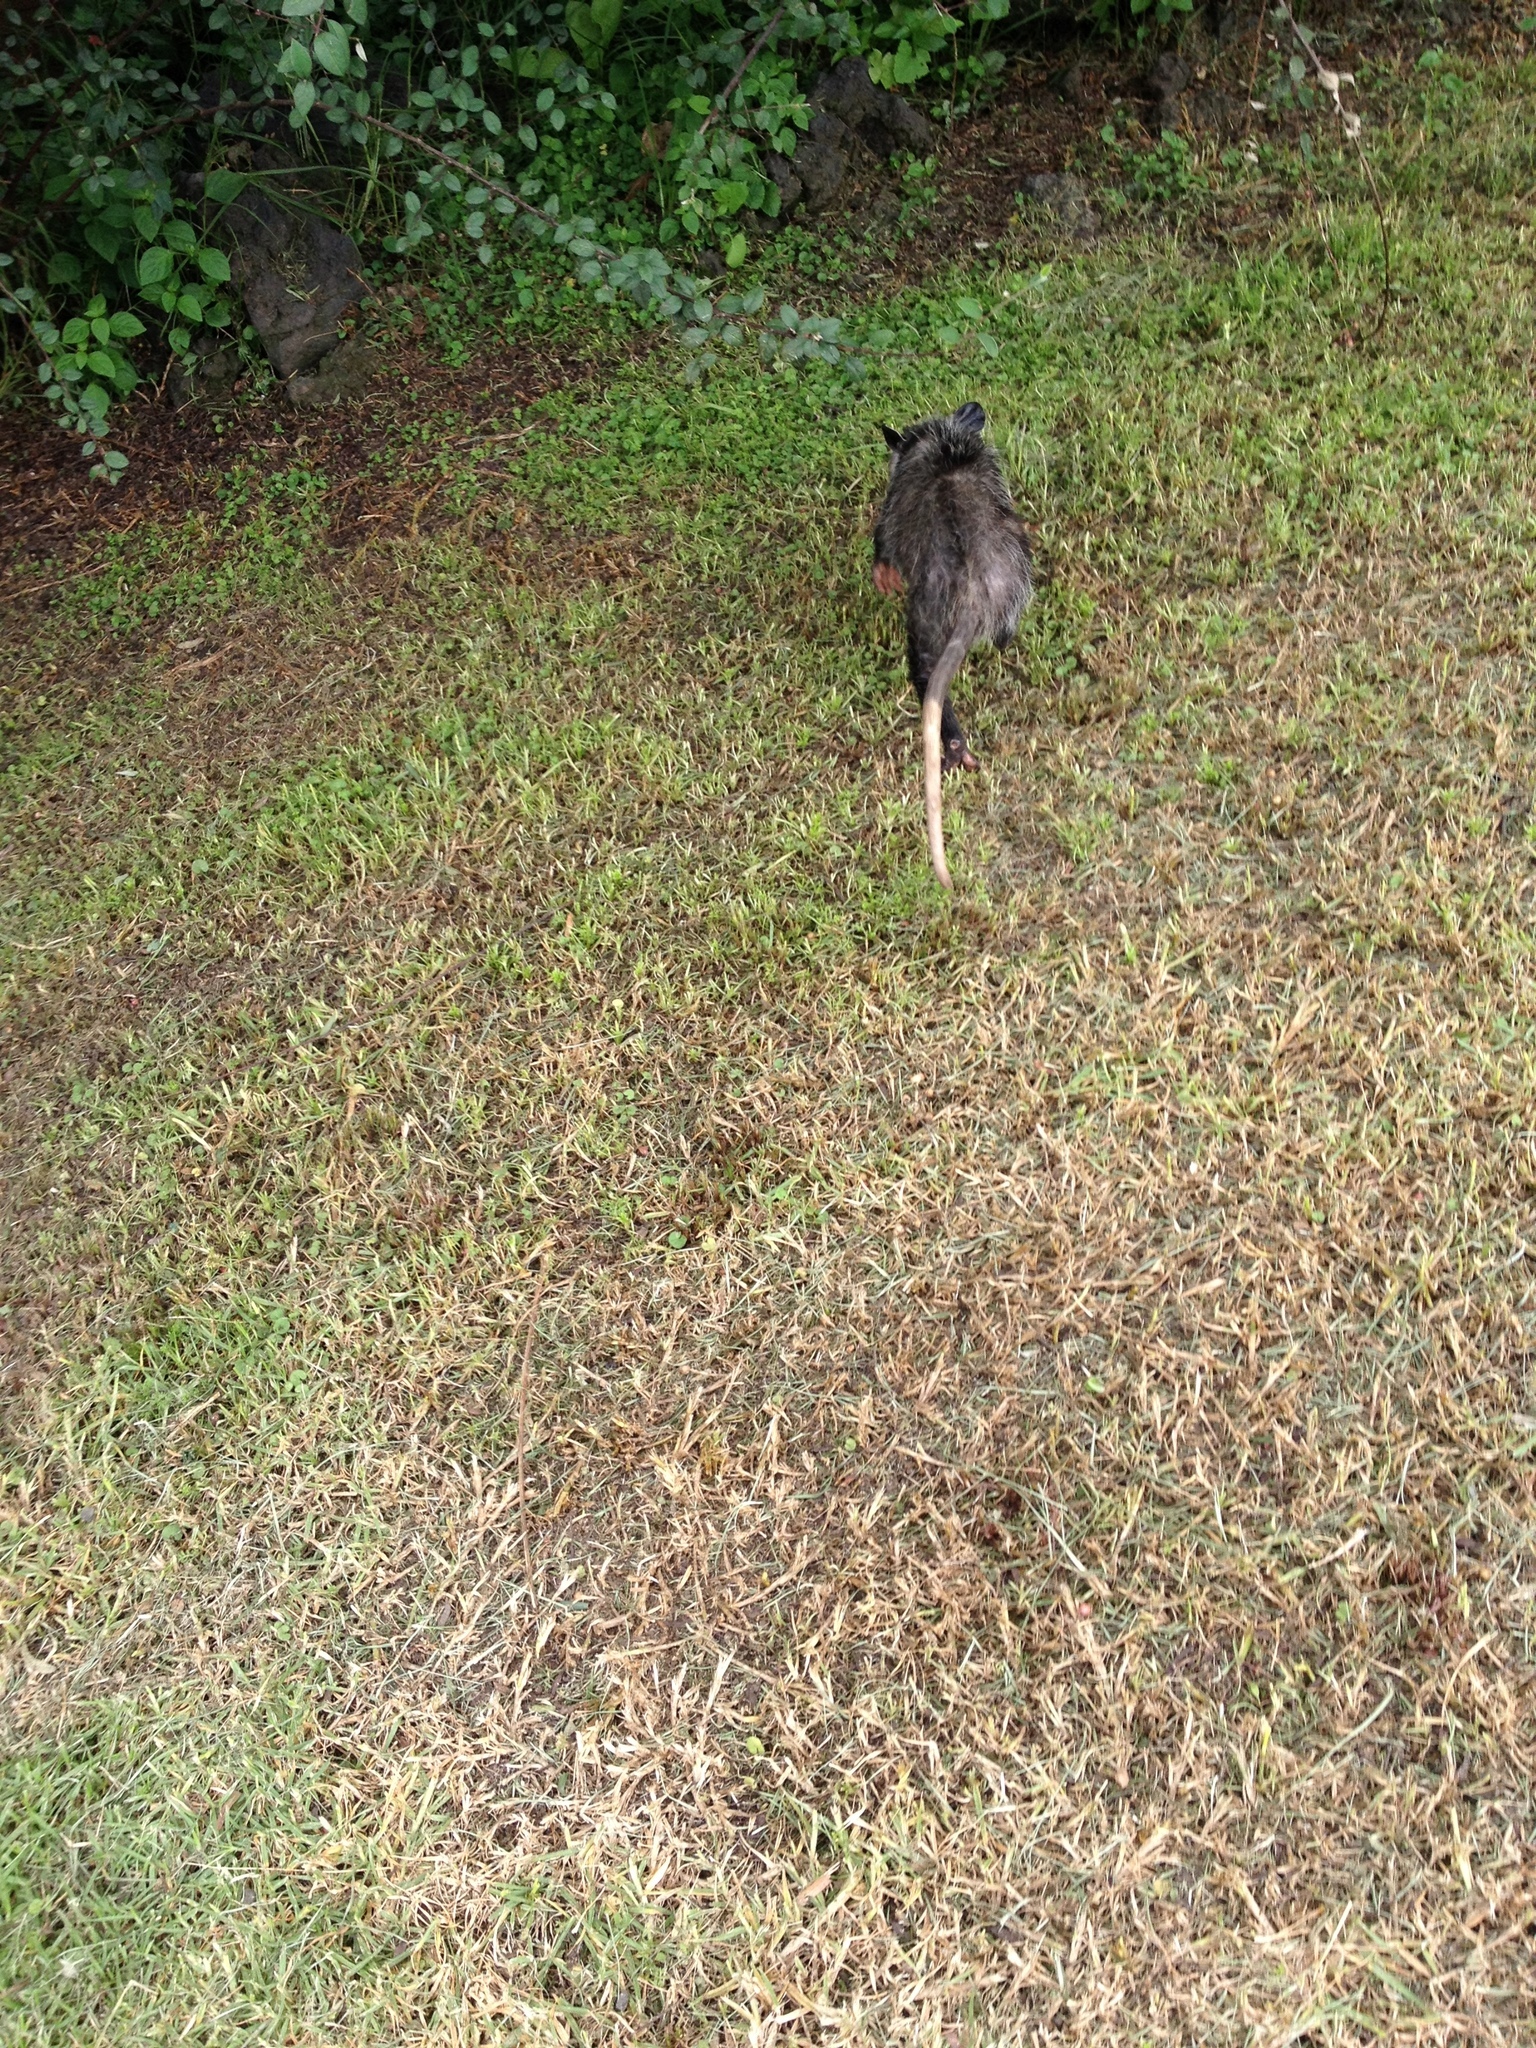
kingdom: Animalia
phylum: Chordata
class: Mammalia
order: Didelphimorphia
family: Didelphidae
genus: Didelphis
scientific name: Didelphis virginiana
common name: Virginia opossum
